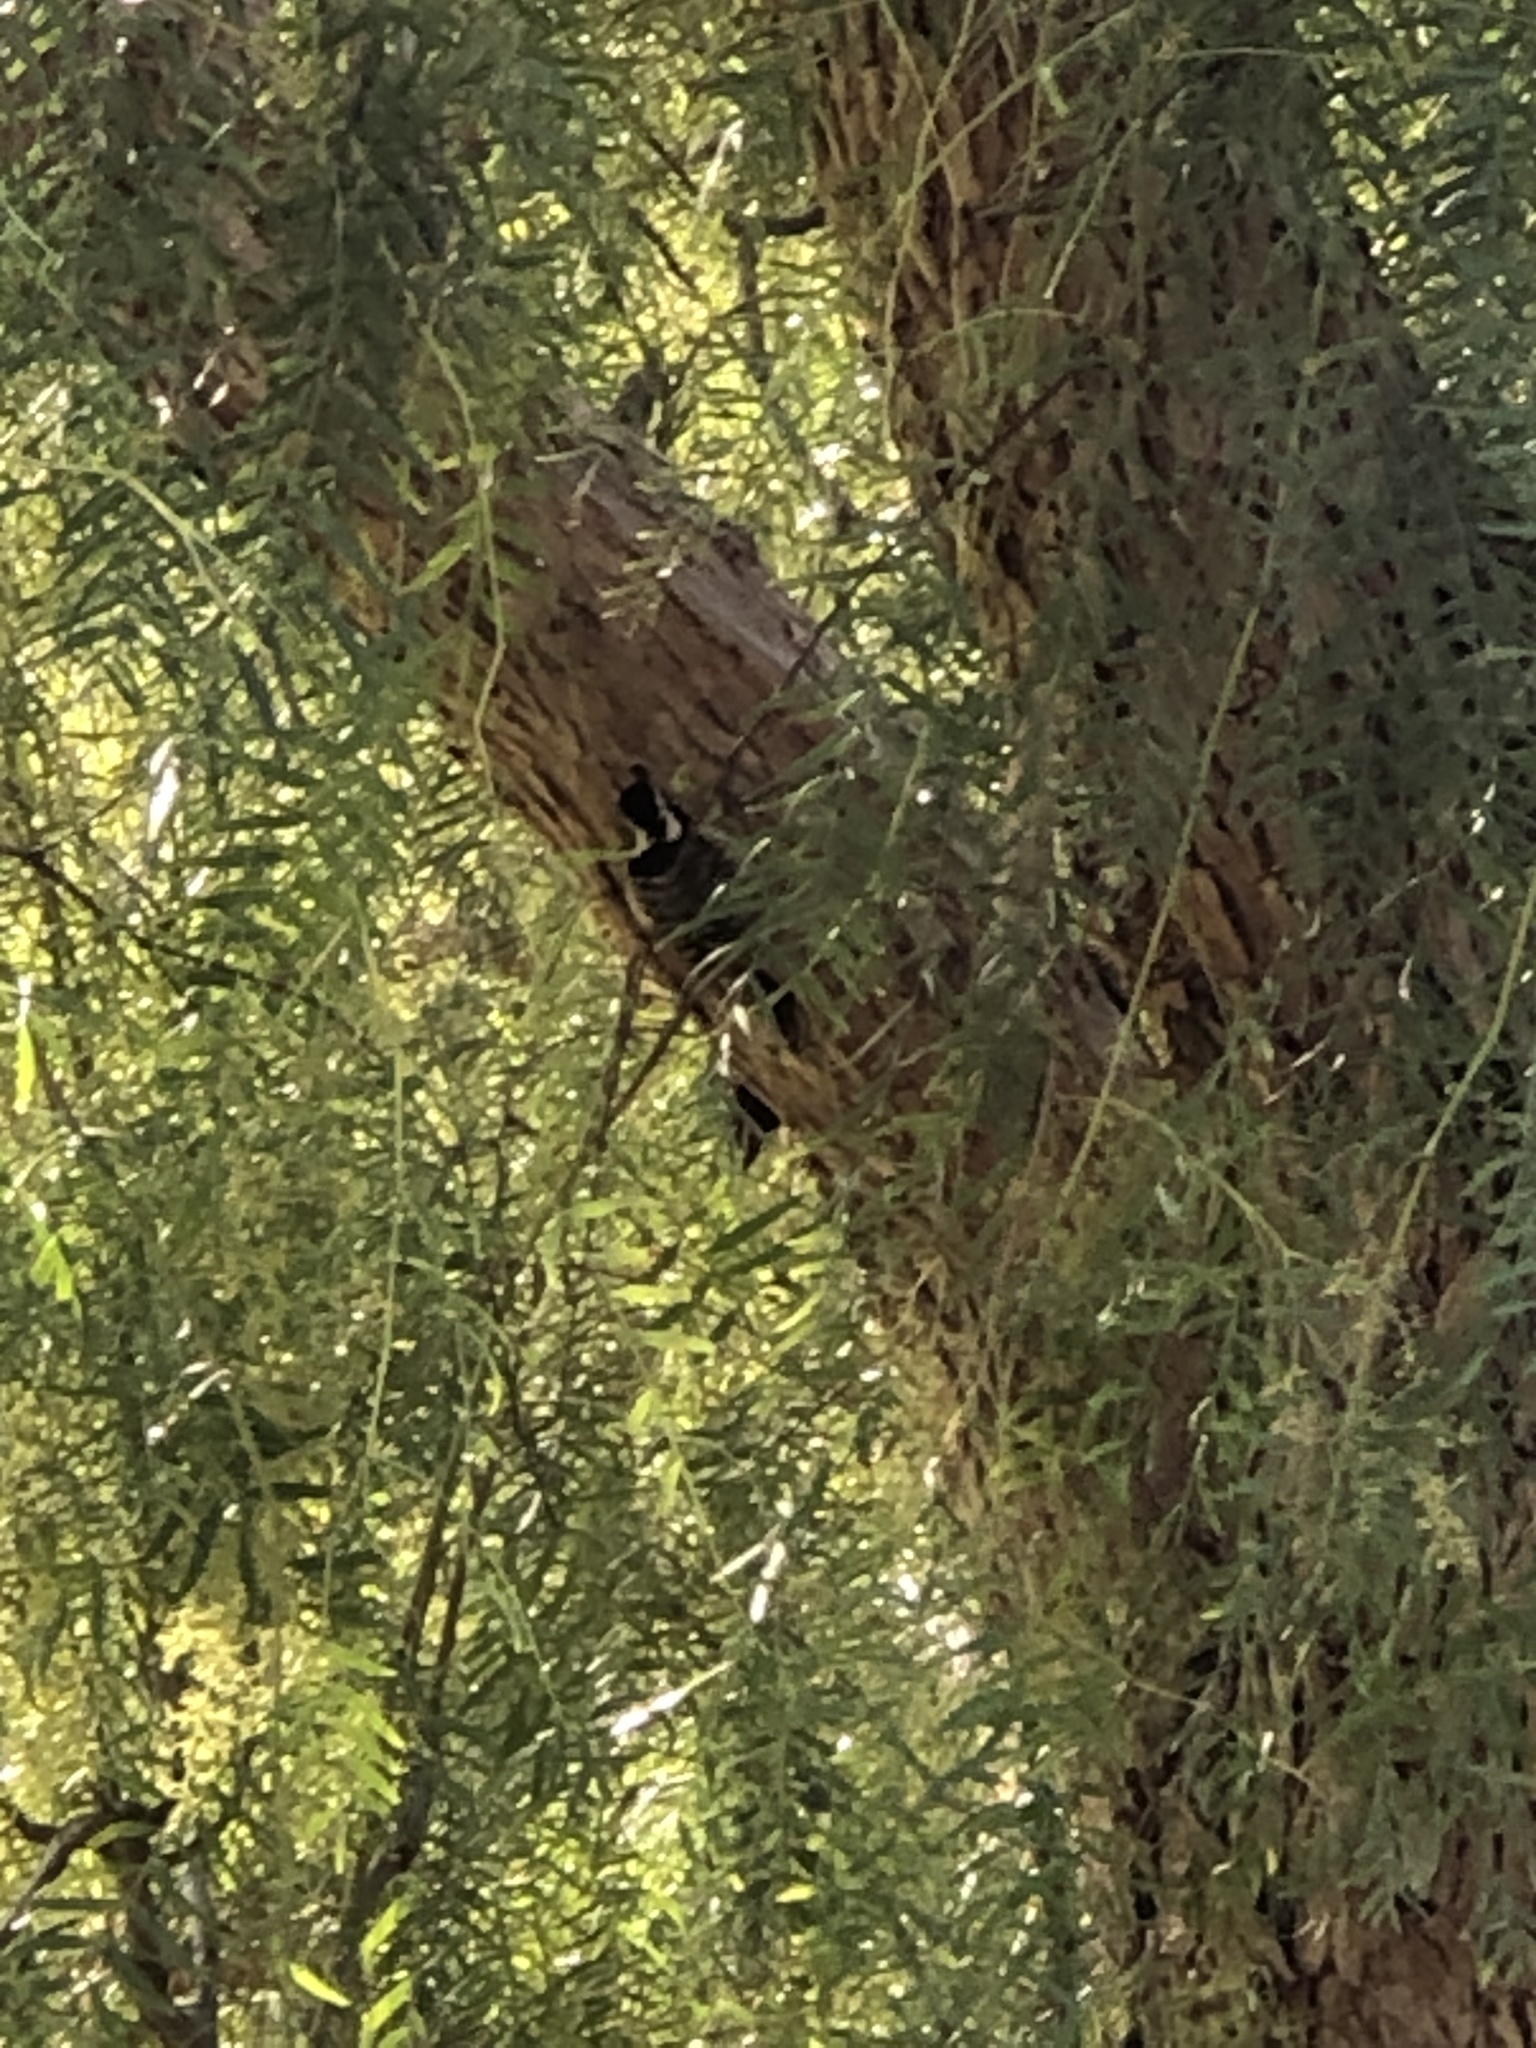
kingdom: Animalia
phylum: Chordata
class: Aves
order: Piciformes
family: Picidae
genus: Dryobates
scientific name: Dryobates nuttallii
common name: Nuttall's woodpecker
